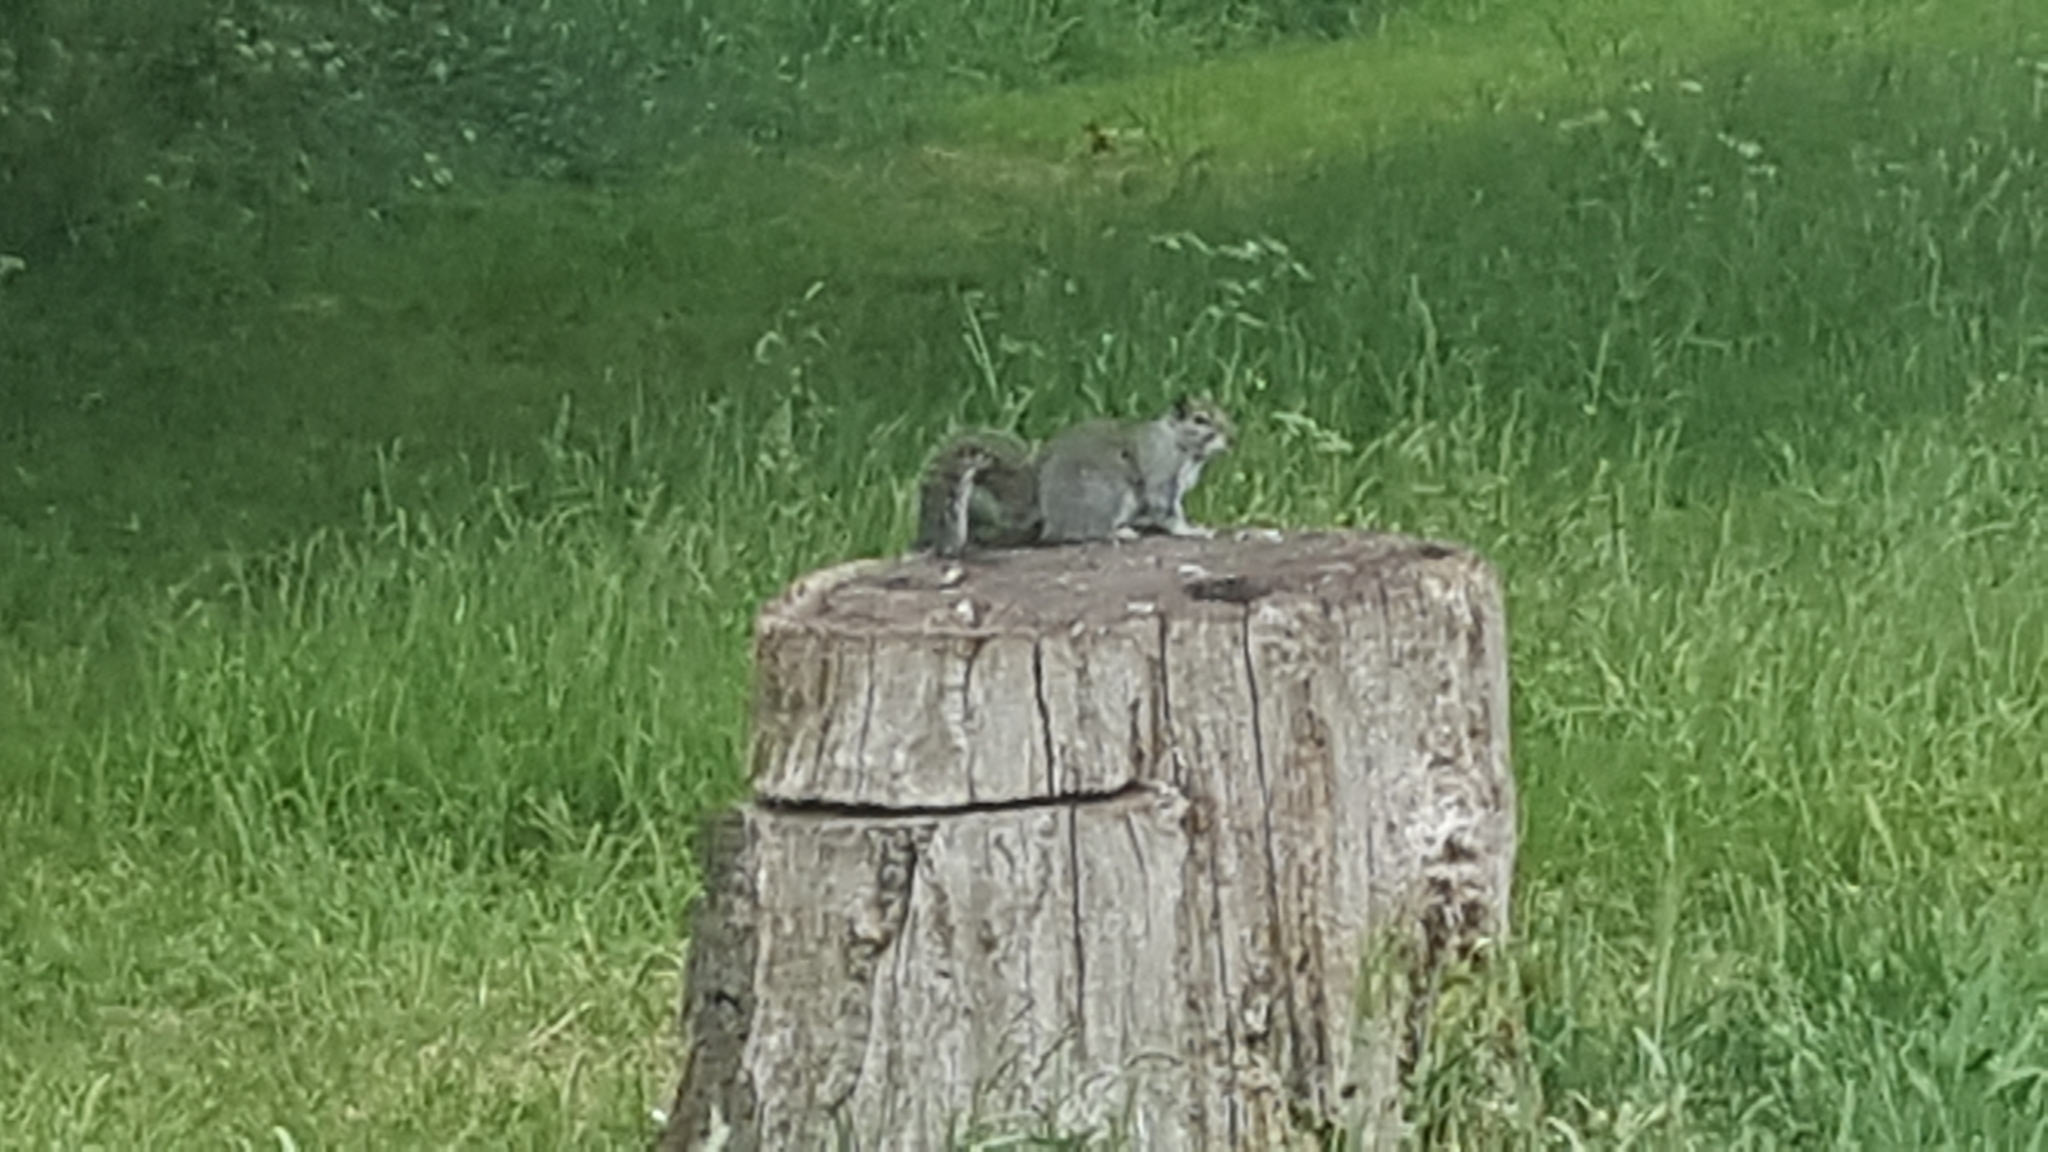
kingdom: Animalia
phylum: Chordata
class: Mammalia
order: Rodentia
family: Sciuridae
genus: Sciurus
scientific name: Sciurus carolinensis
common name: Eastern gray squirrel
